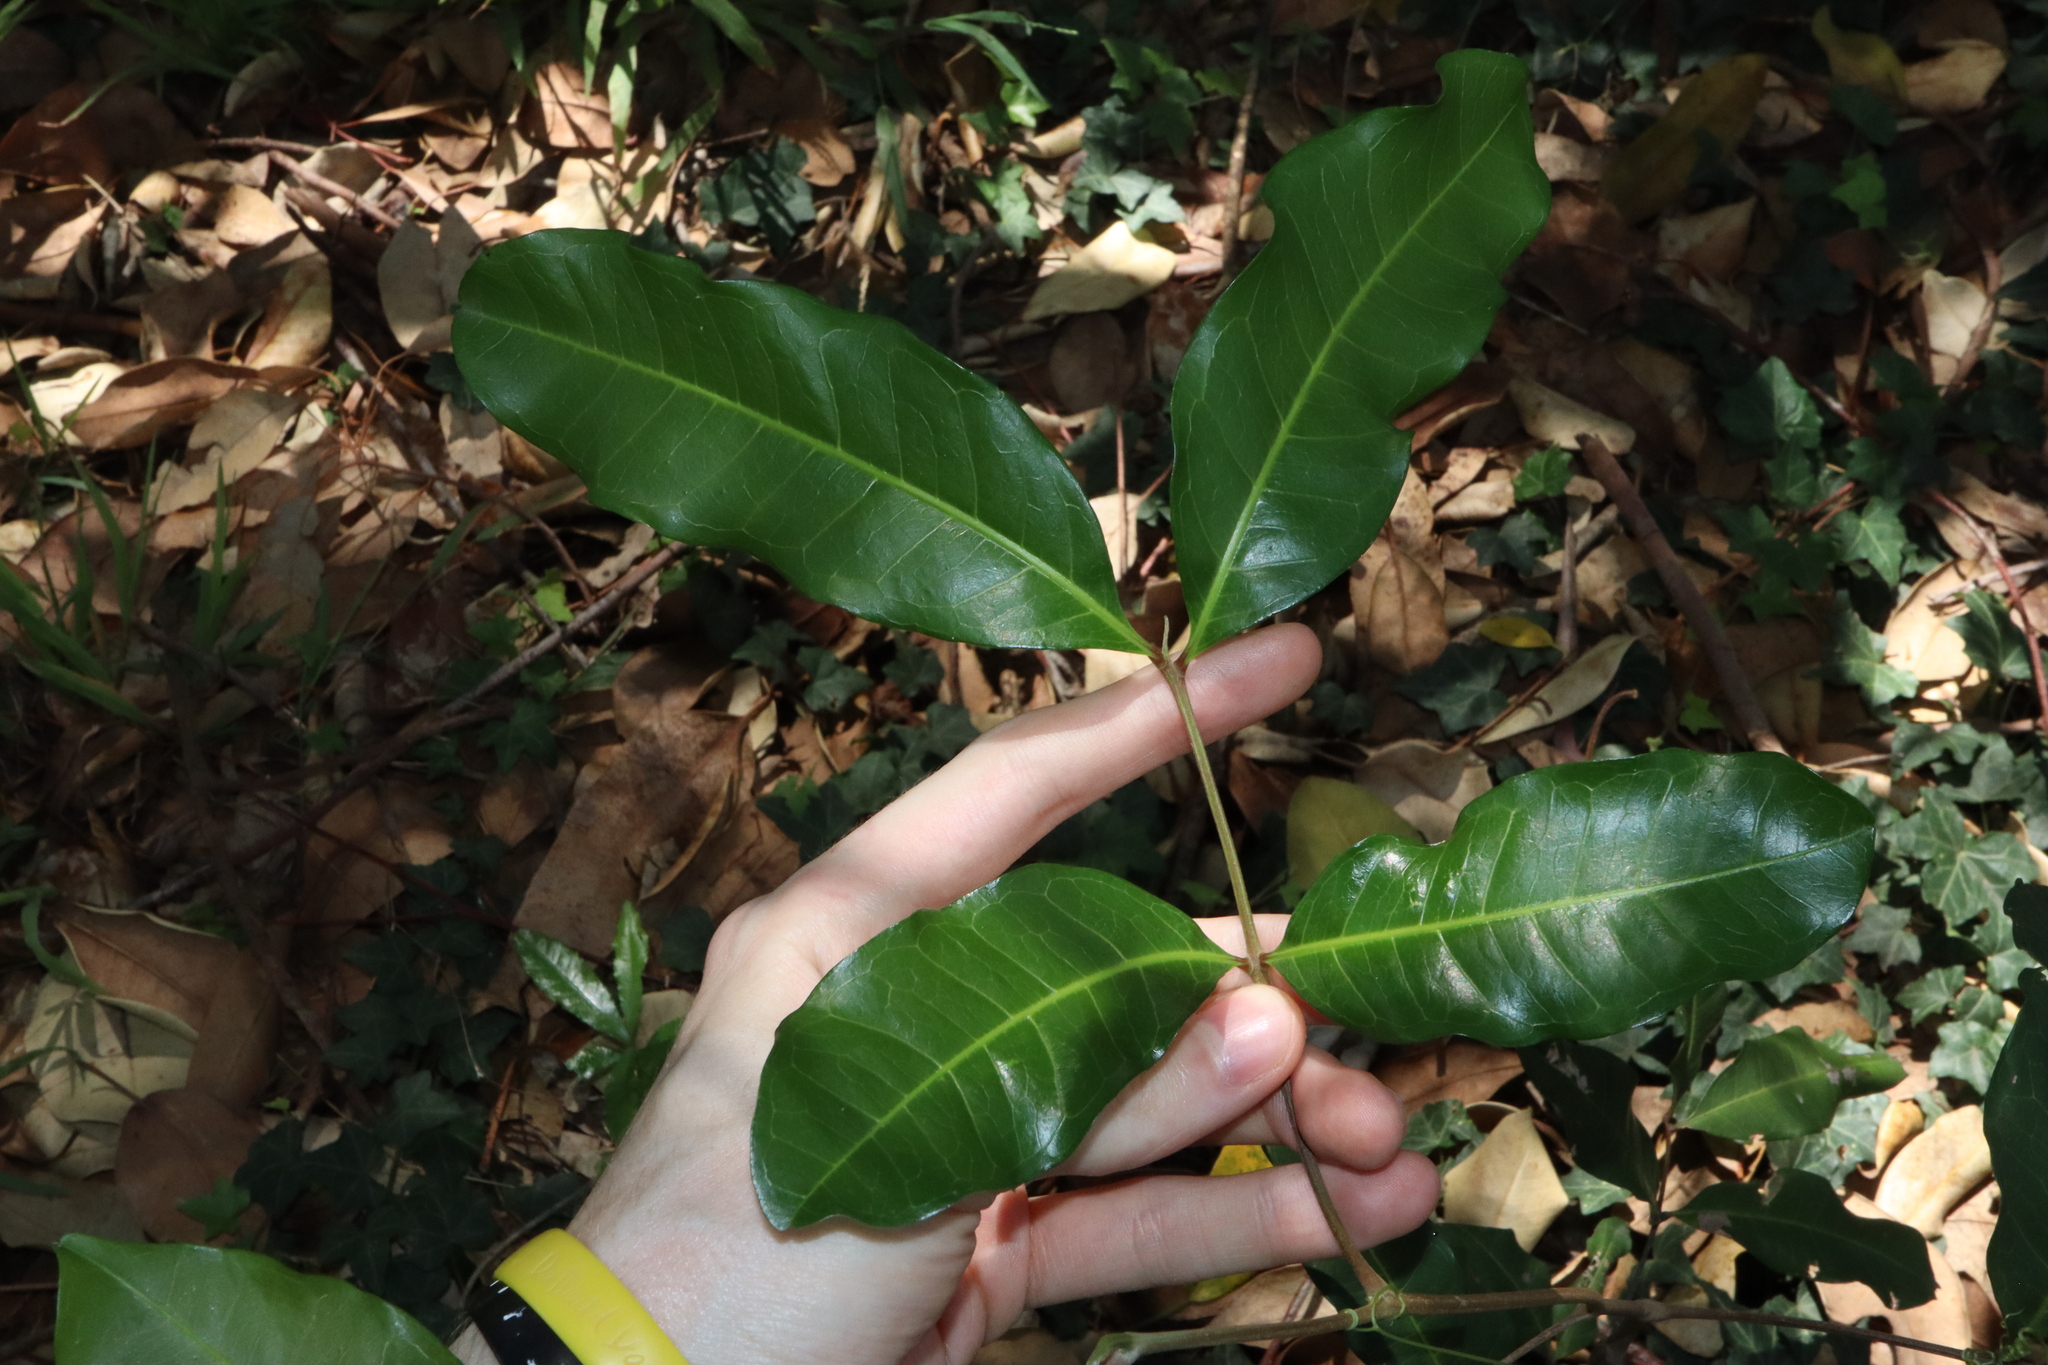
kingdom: Plantae
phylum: Tracheophyta
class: Magnoliopsida
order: Sapindales
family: Sapindaceae
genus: Cupaniopsis
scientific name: Cupaniopsis anacardioides
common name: Carrotwood
